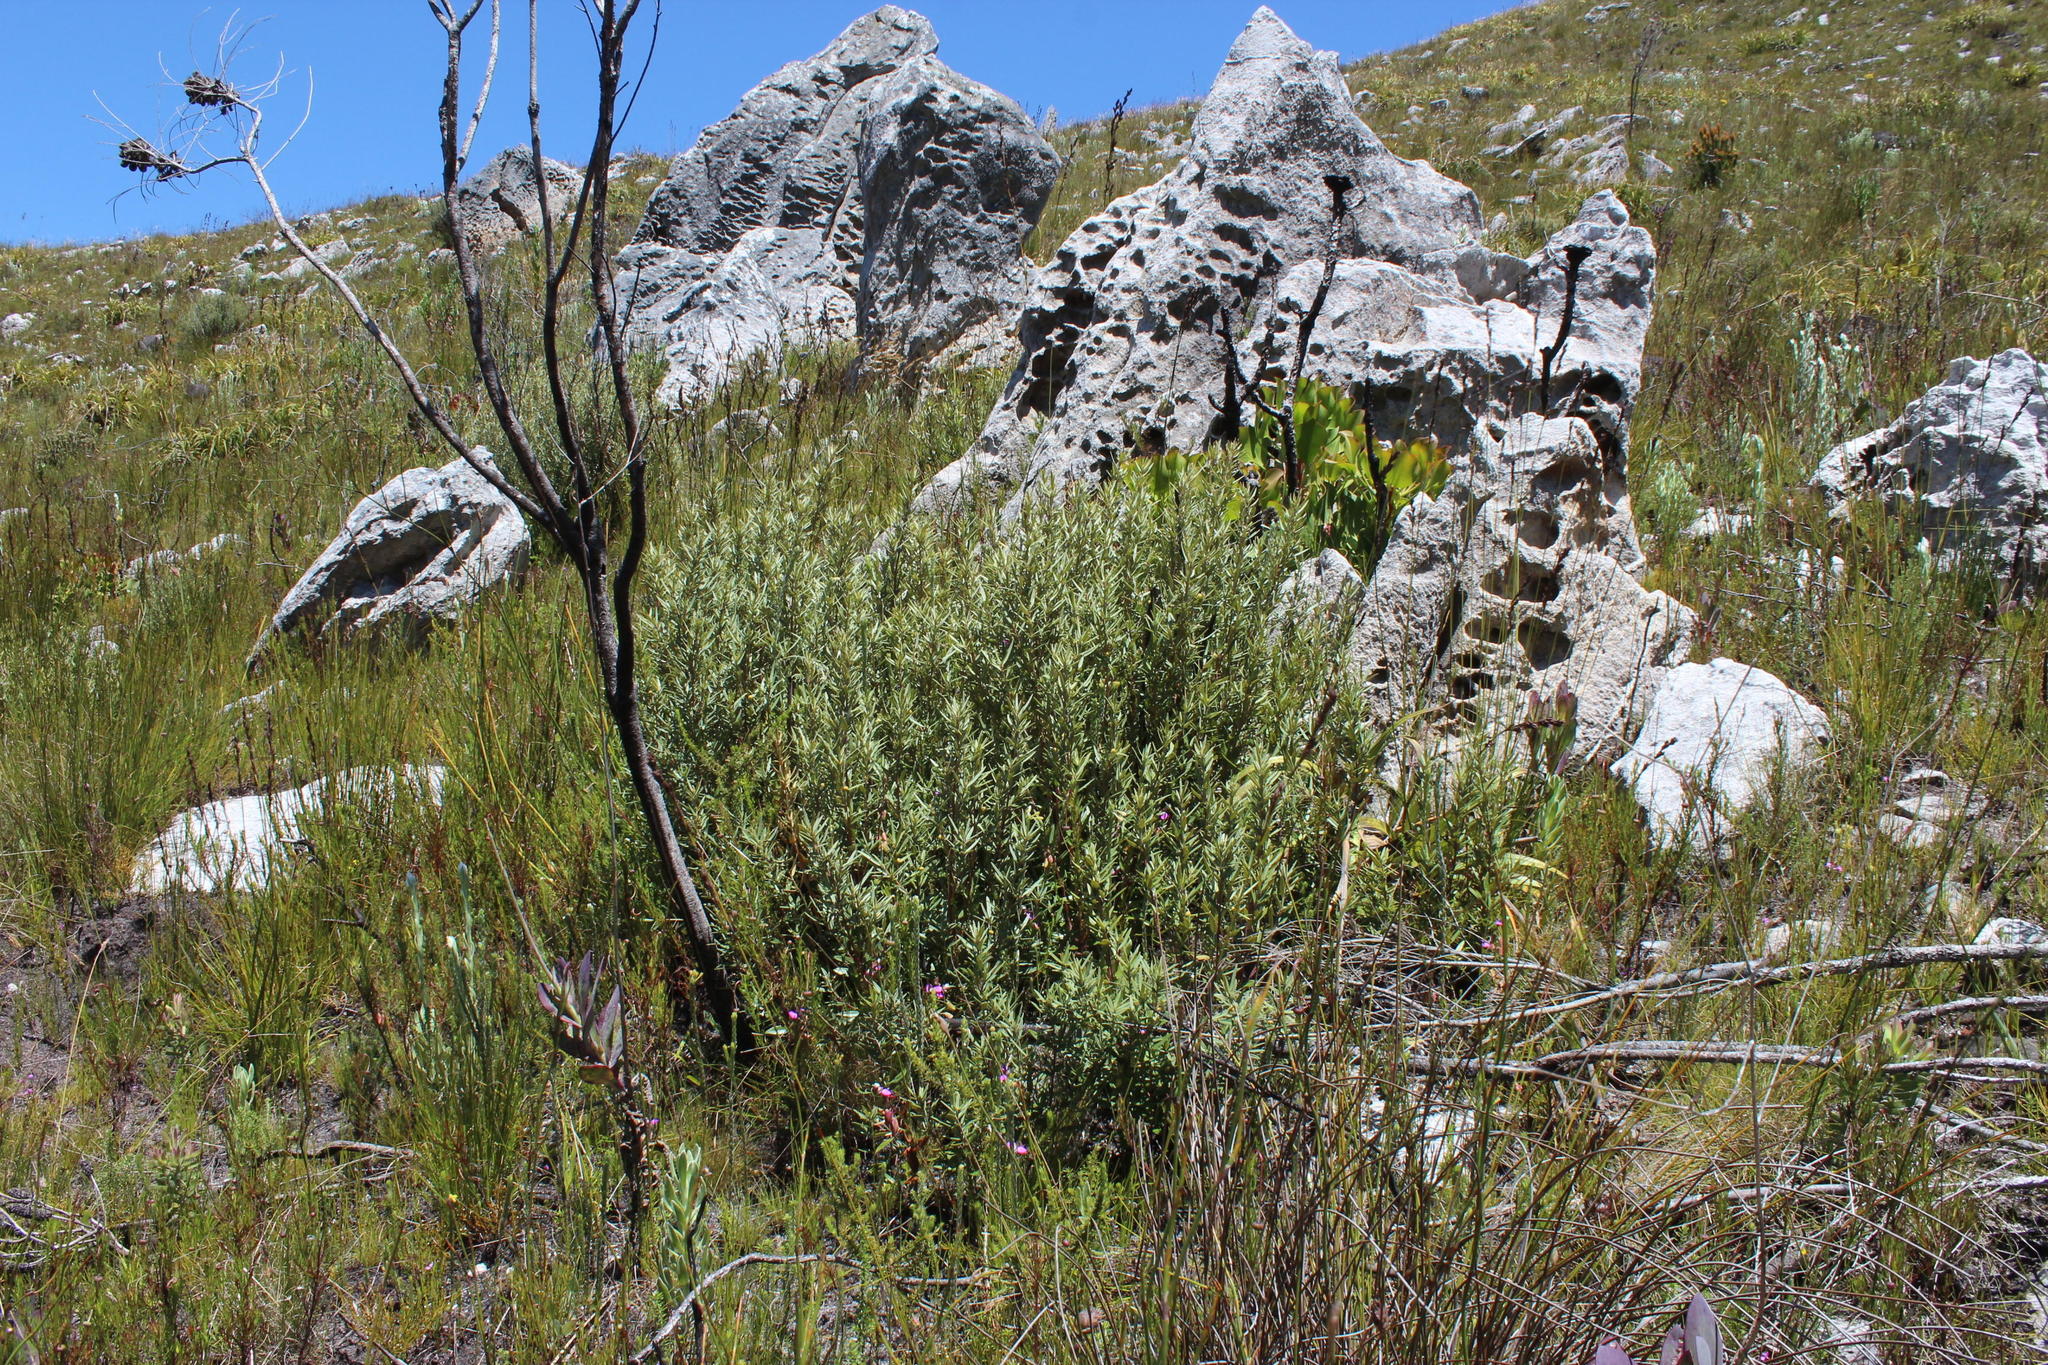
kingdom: Plantae
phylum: Tracheophyta
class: Magnoliopsida
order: Cornales
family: Grubbiaceae
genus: Grubbia
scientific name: Grubbia tomentosa
